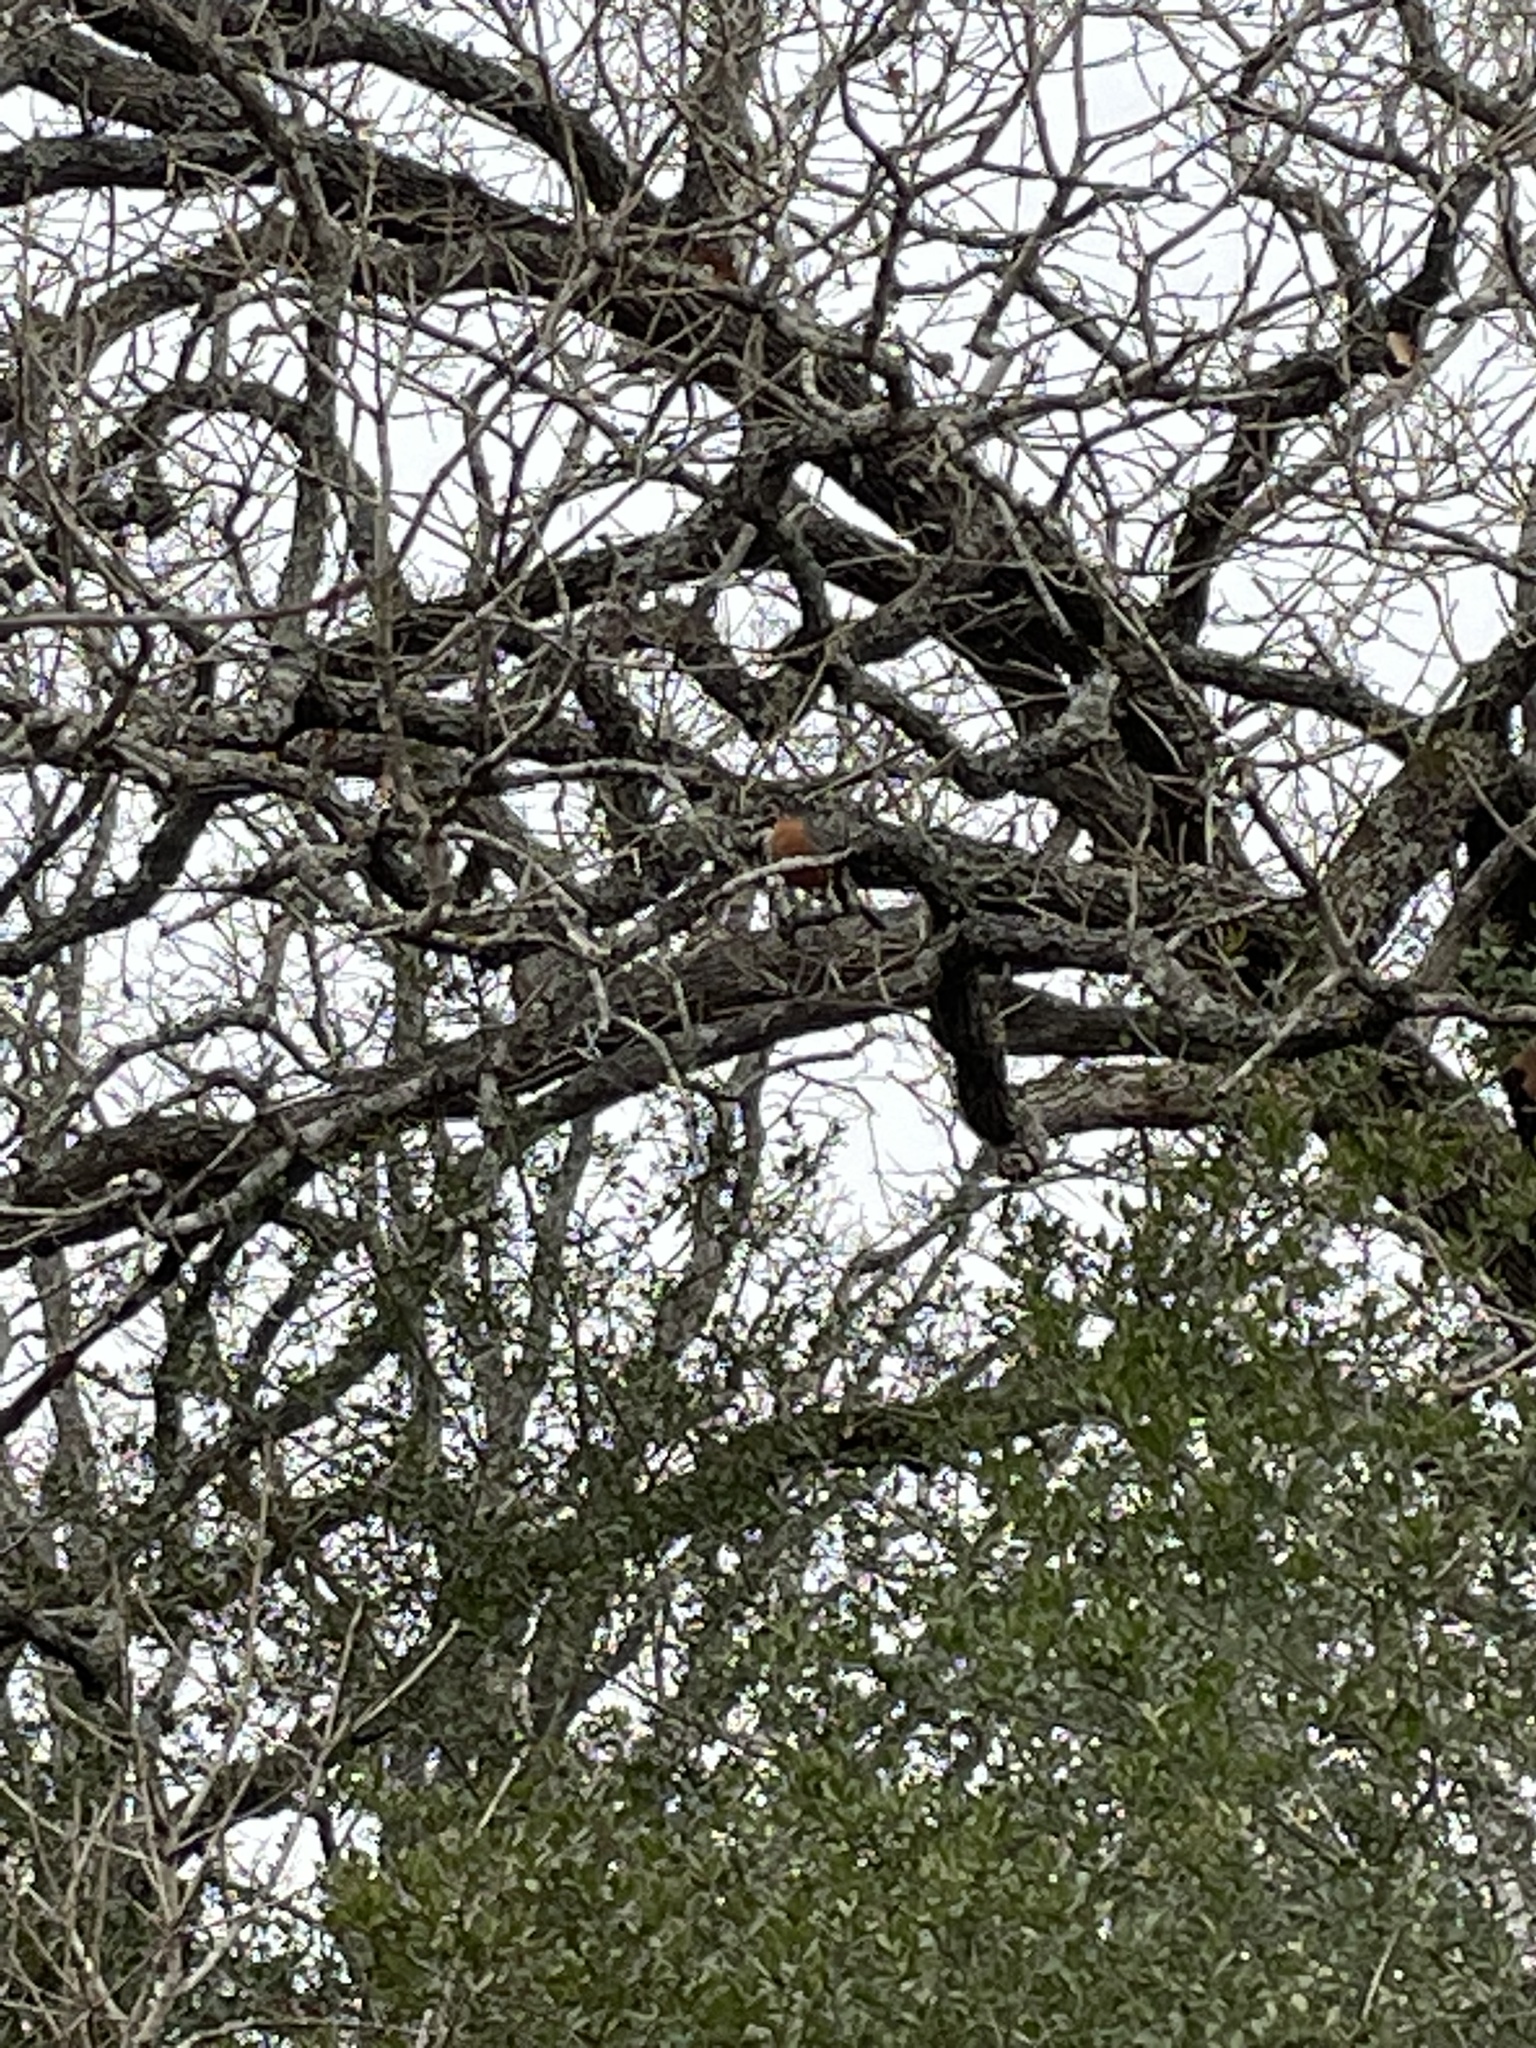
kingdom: Animalia
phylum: Chordata
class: Aves
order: Passeriformes
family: Turdidae
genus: Turdus
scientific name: Turdus migratorius
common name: American robin
